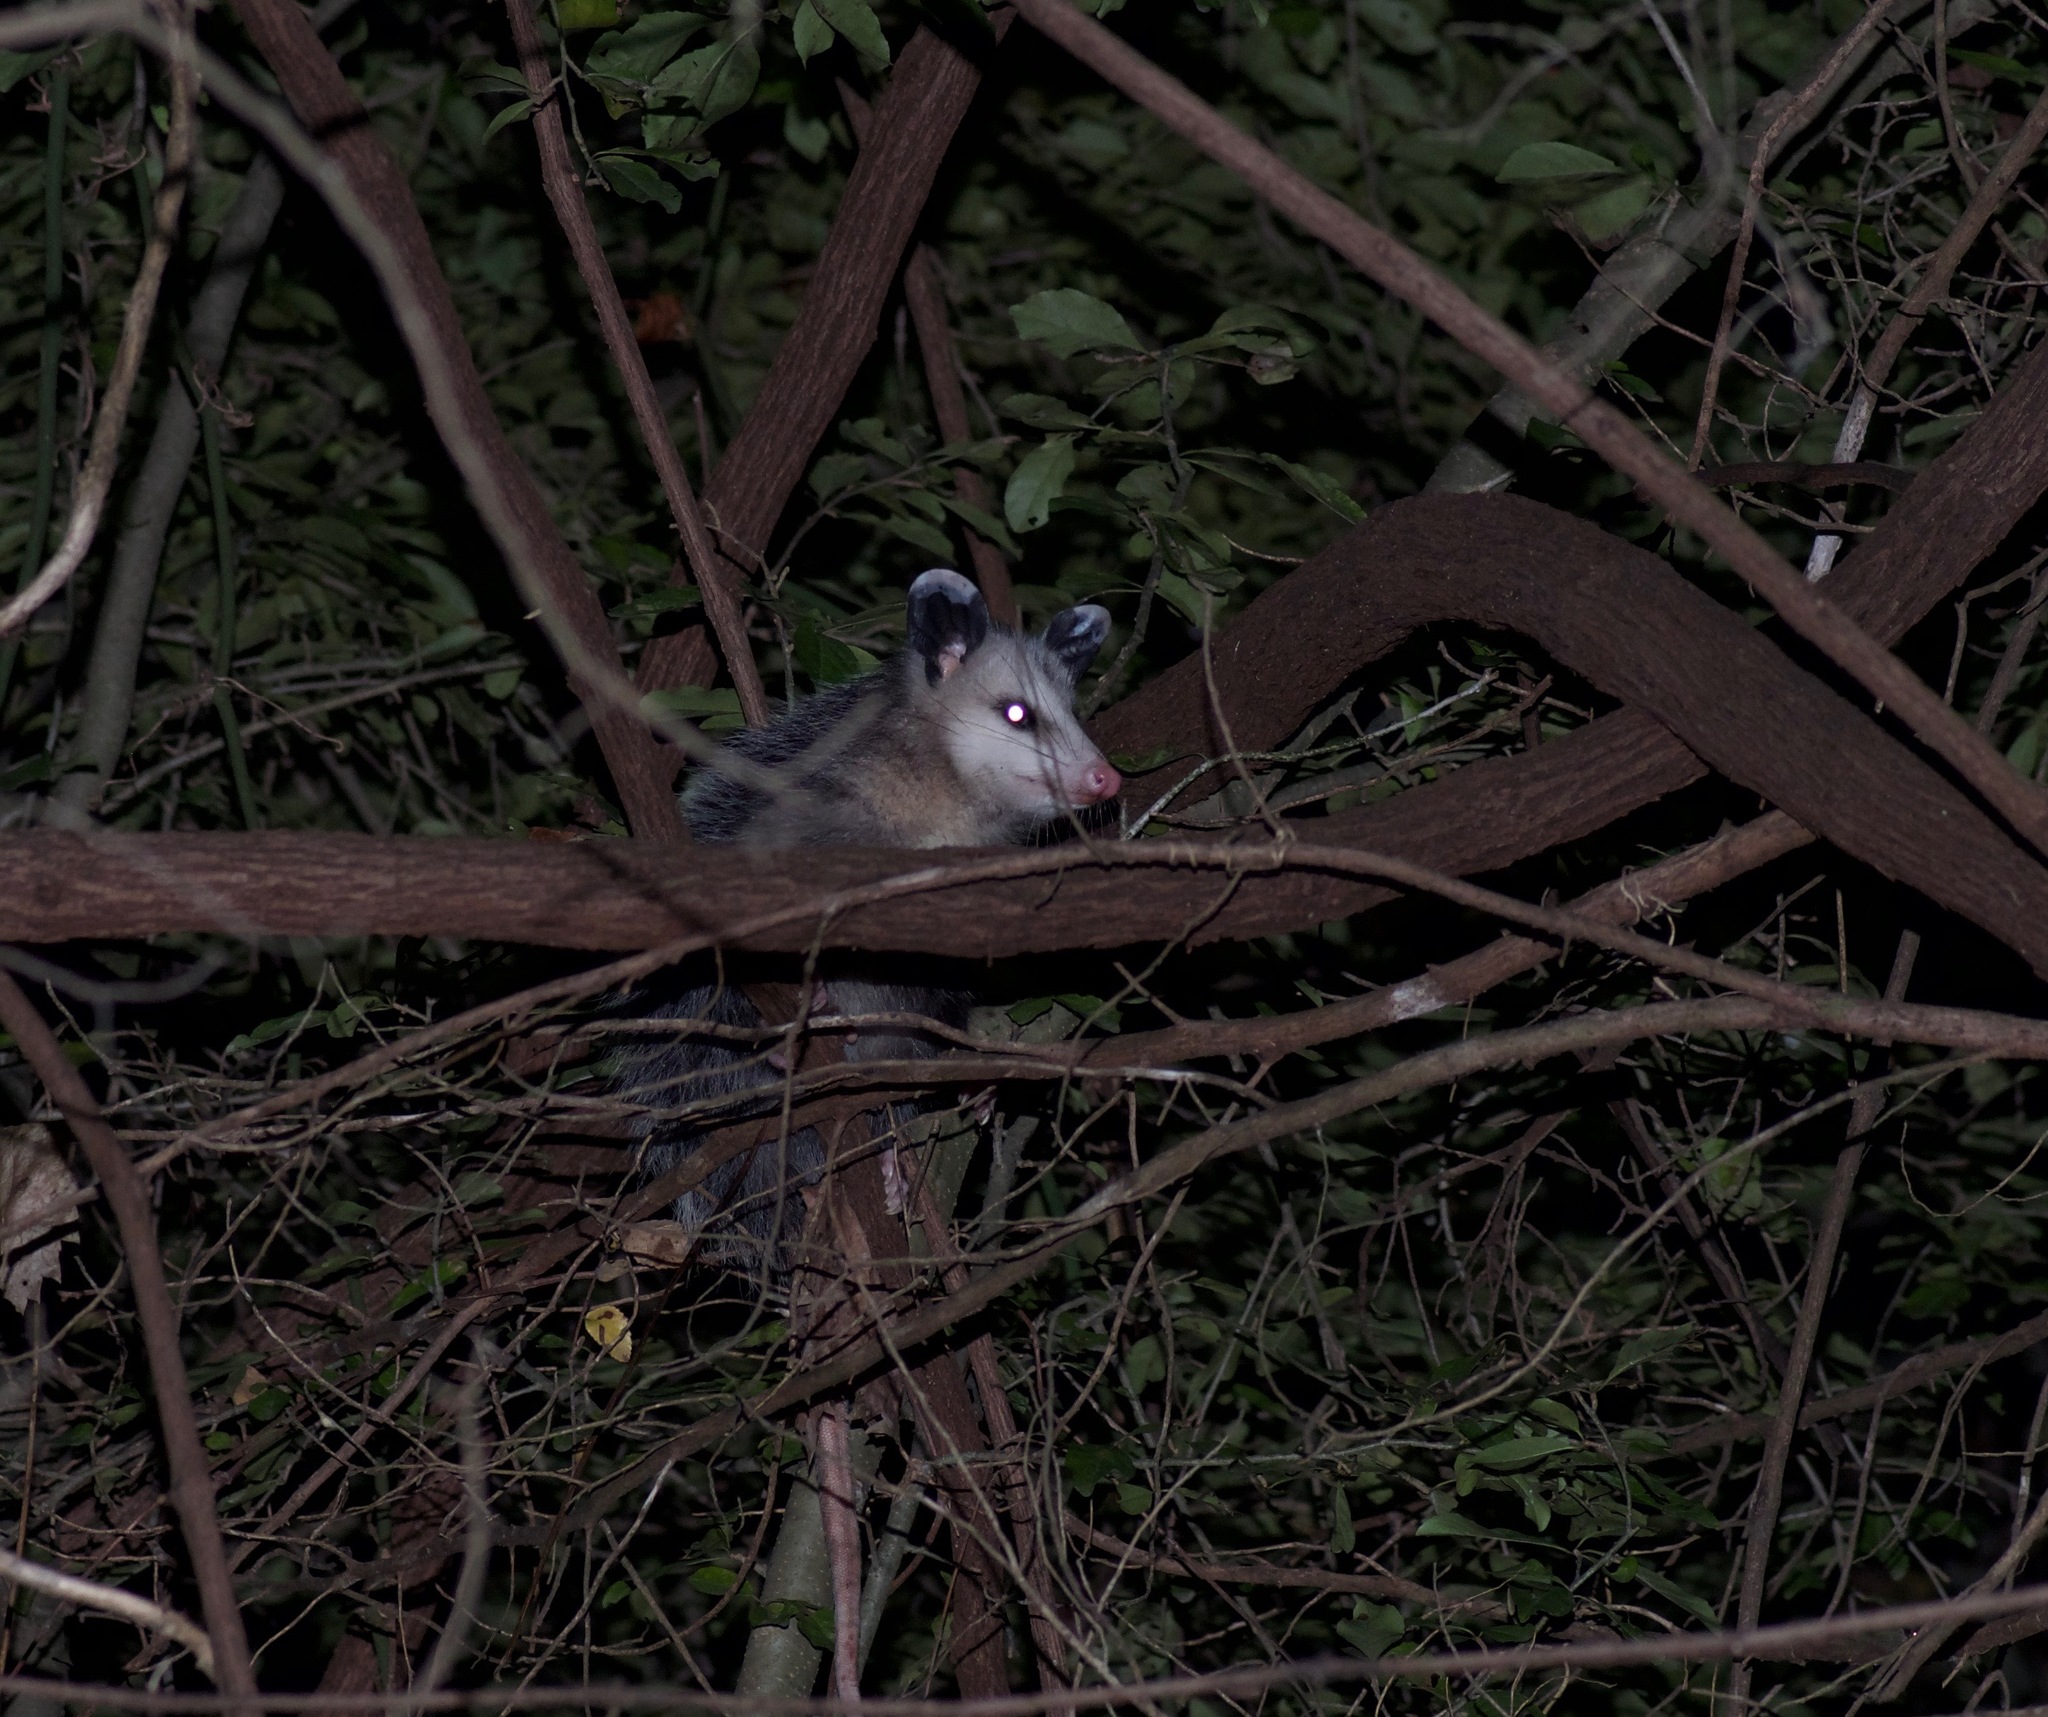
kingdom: Animalia
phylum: Chordata
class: Mammalia
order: Didelphimorphia
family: Didelphidae
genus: Didelphis
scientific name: Didelphis virginiana
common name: Virginia opossum
